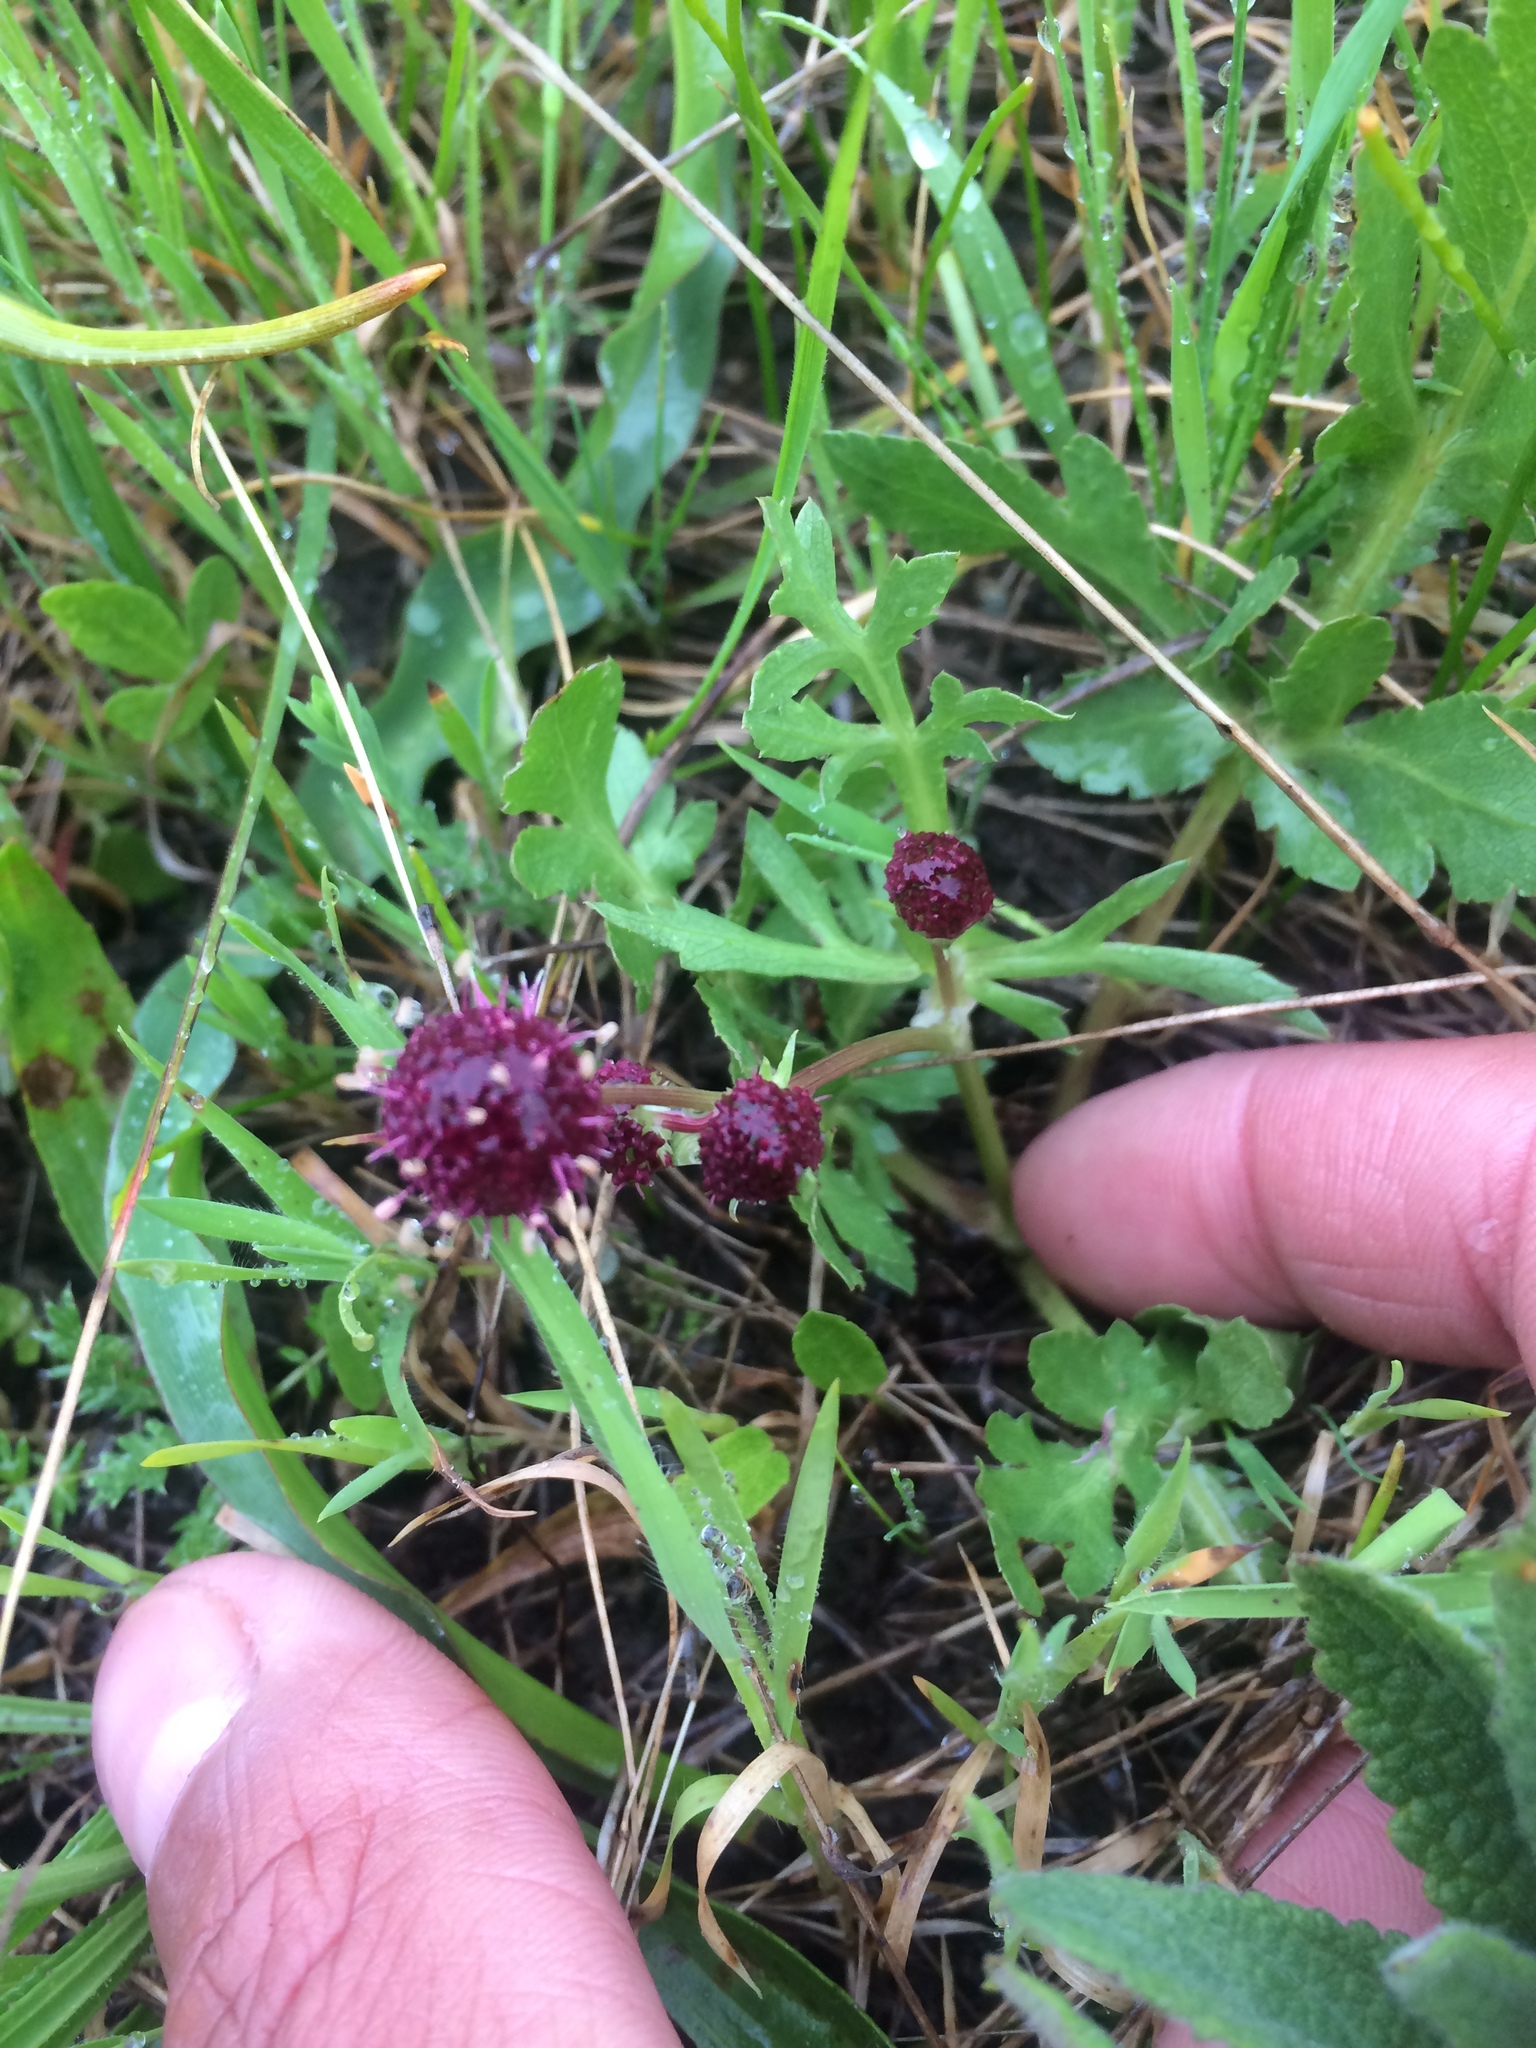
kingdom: Plantae
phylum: Tracheophyta
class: Magnoliopsida
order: Apiales
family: Apiaceae
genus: Sanicula
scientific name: Sanicula bipinnatifida
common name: Shoe-buttons
